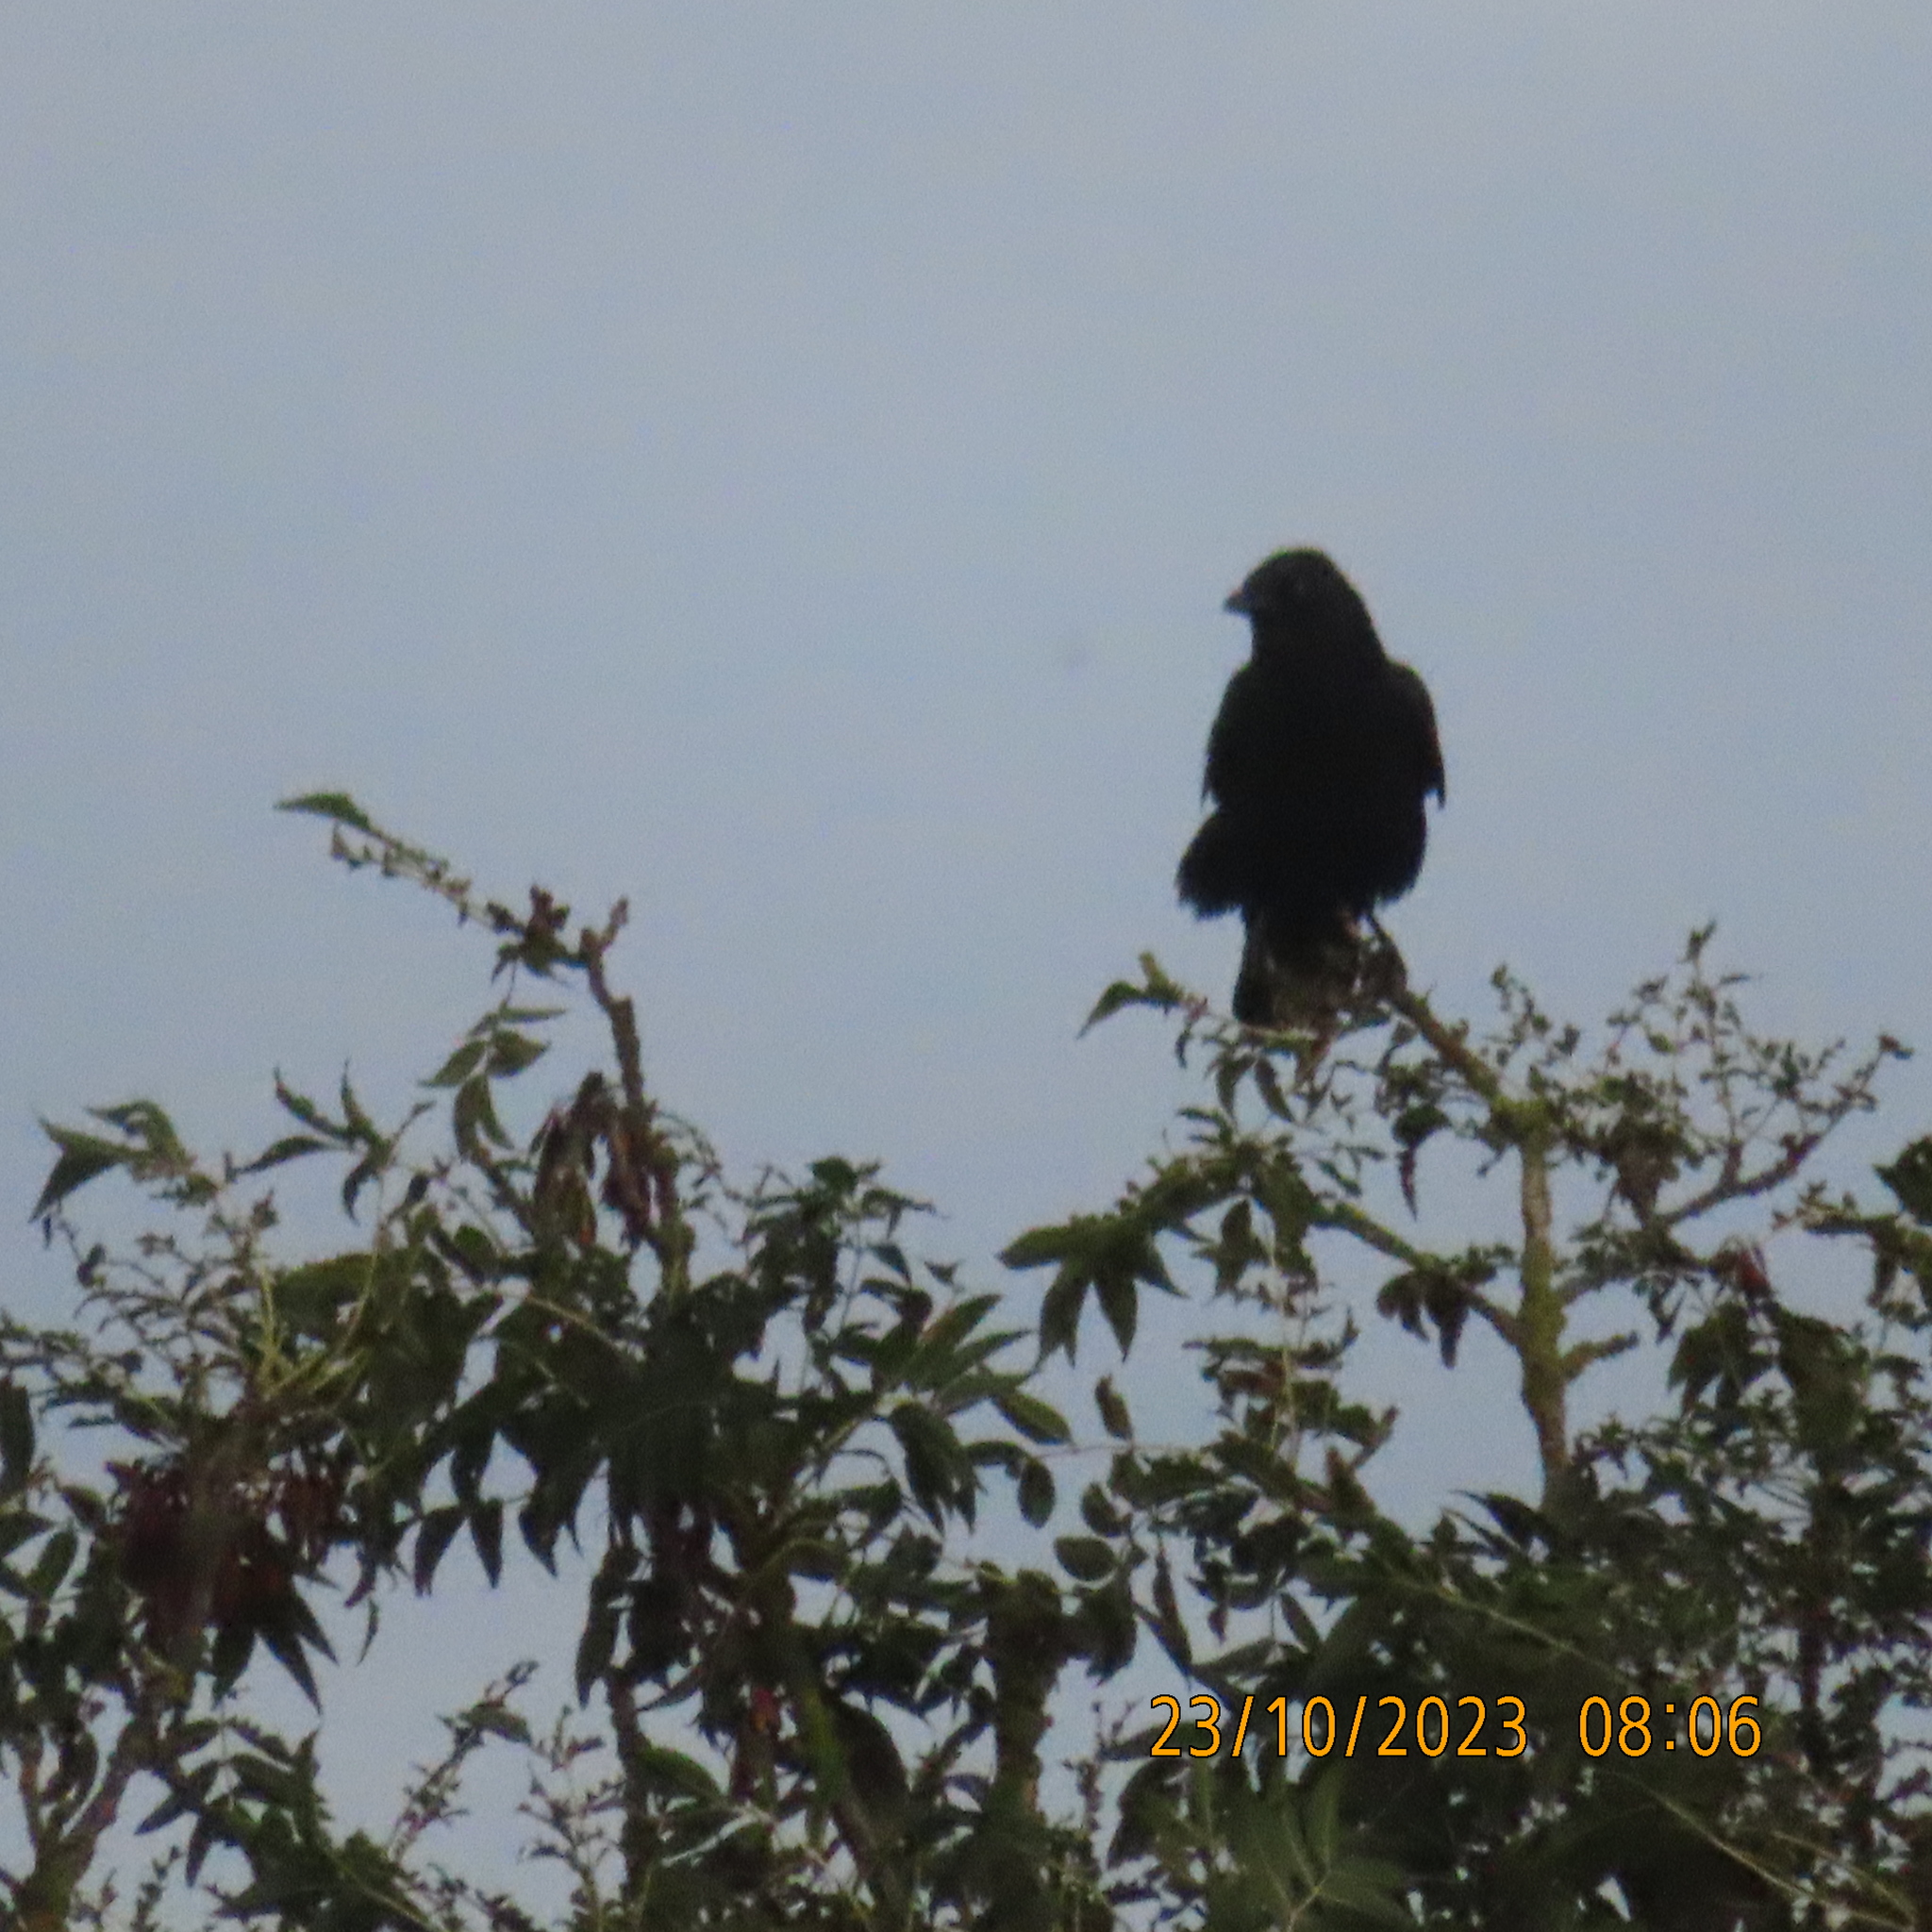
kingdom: Animalia
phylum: Chordata
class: Aves
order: Passeriformes
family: Corvidae
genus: Corvus
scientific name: Corvus corone
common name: Carrion crow
